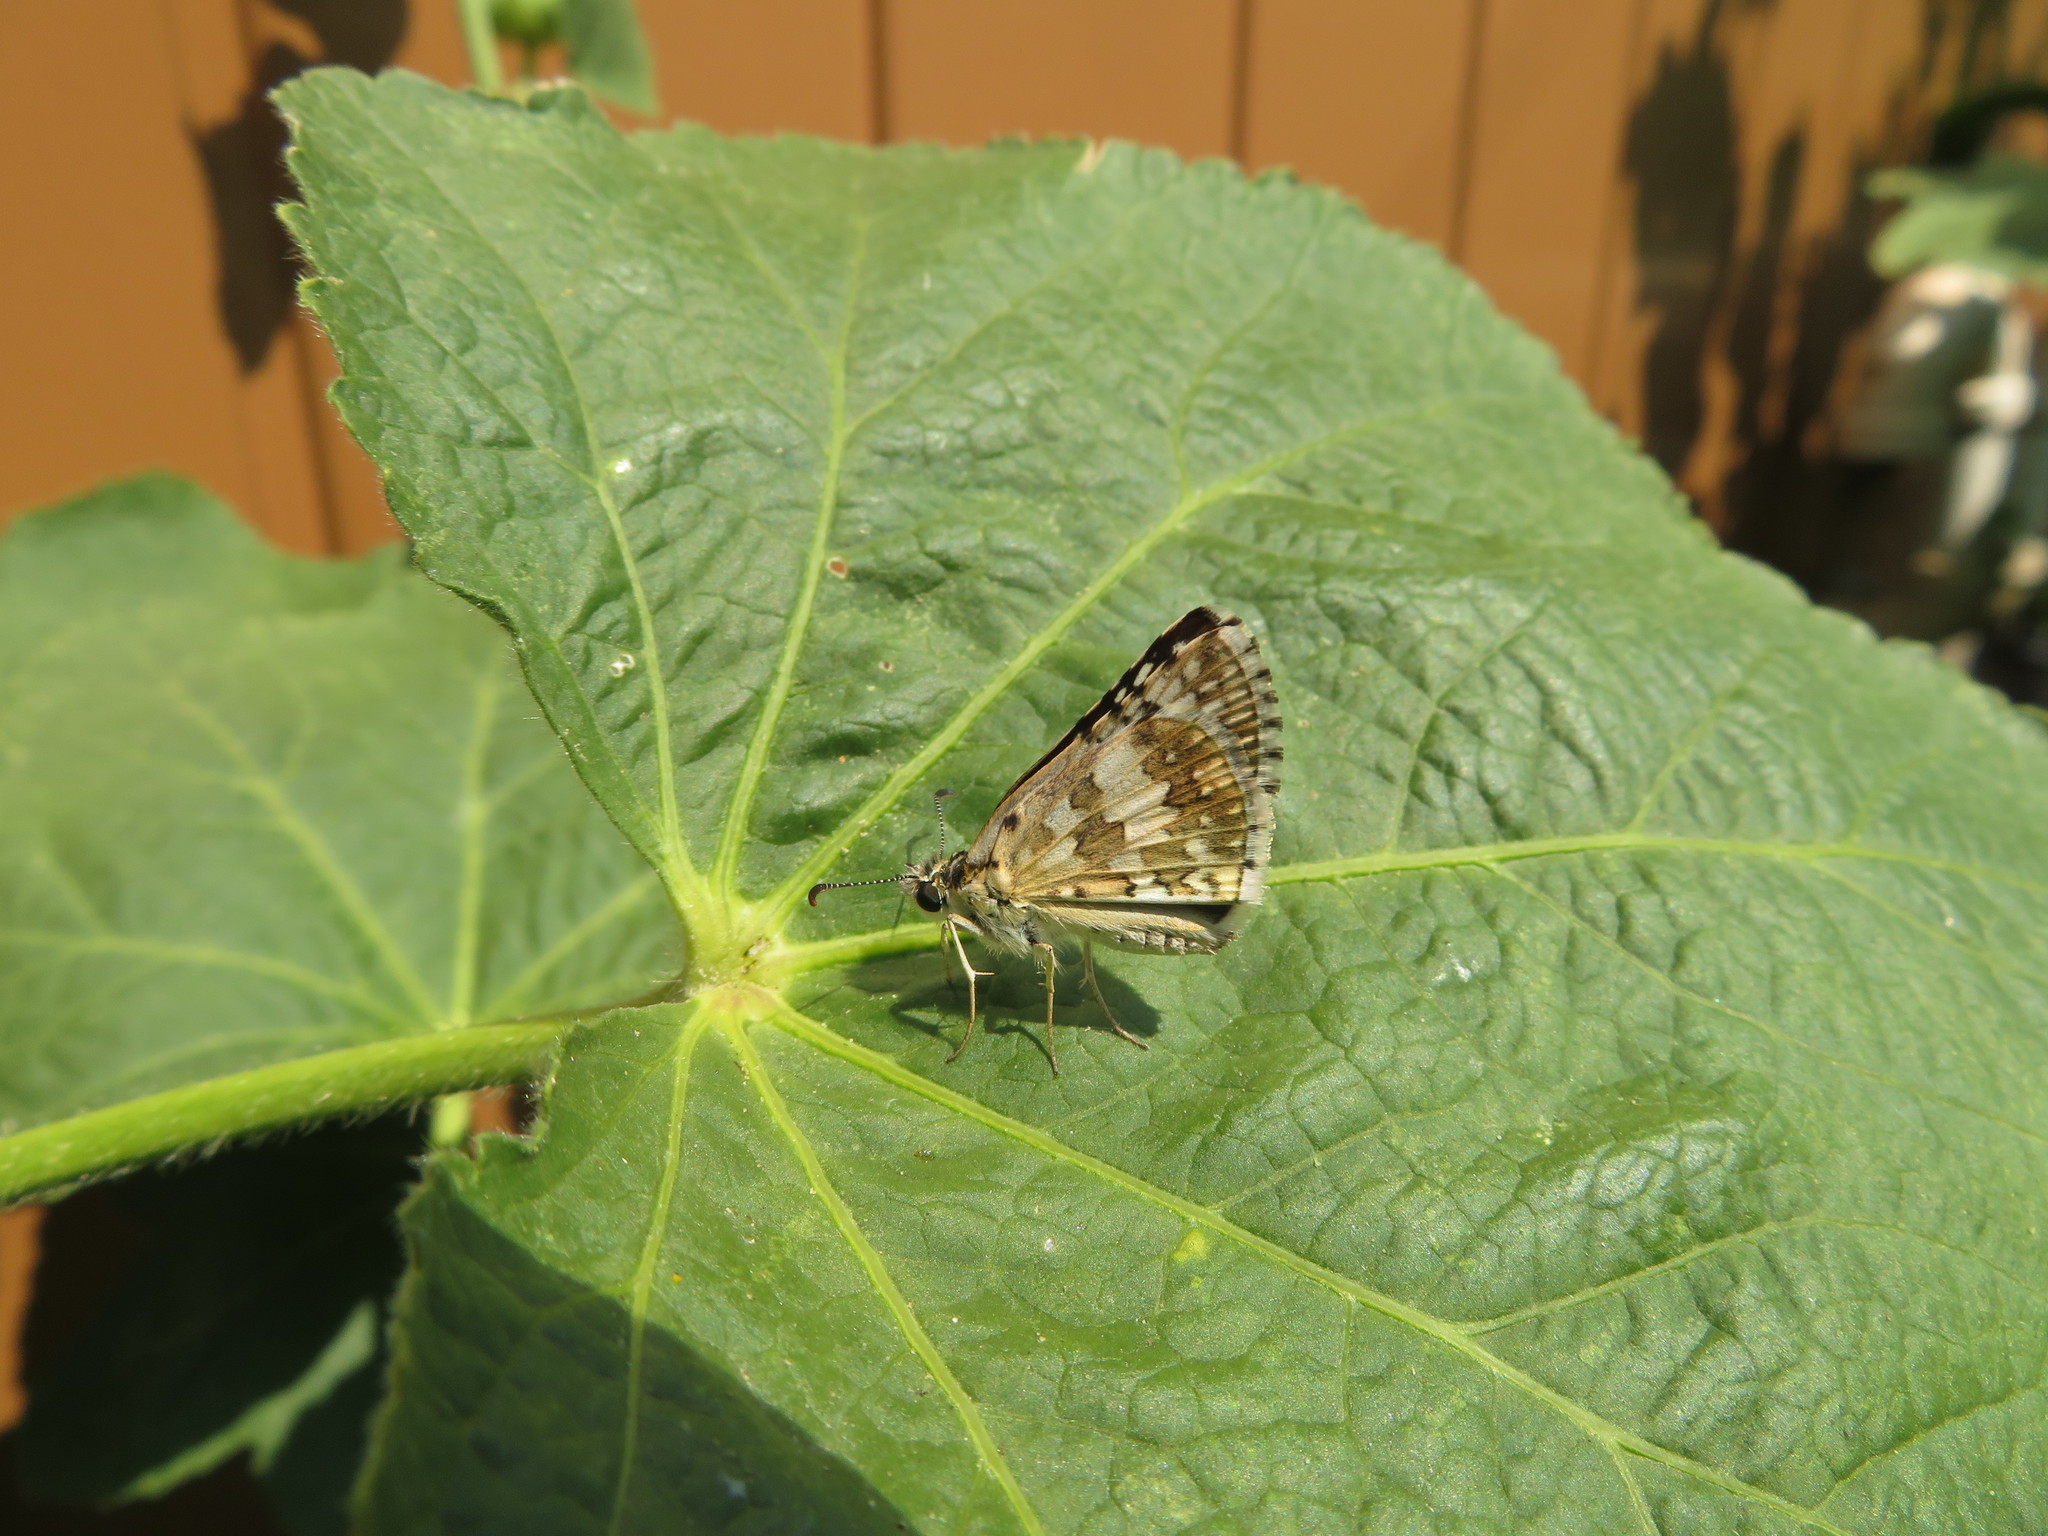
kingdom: Animalia
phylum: Arthropoda
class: Insecta
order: Lepidoptera
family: Hesperiidae
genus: Burnsius
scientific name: Burnsius communis
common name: Common checkered-skipper
